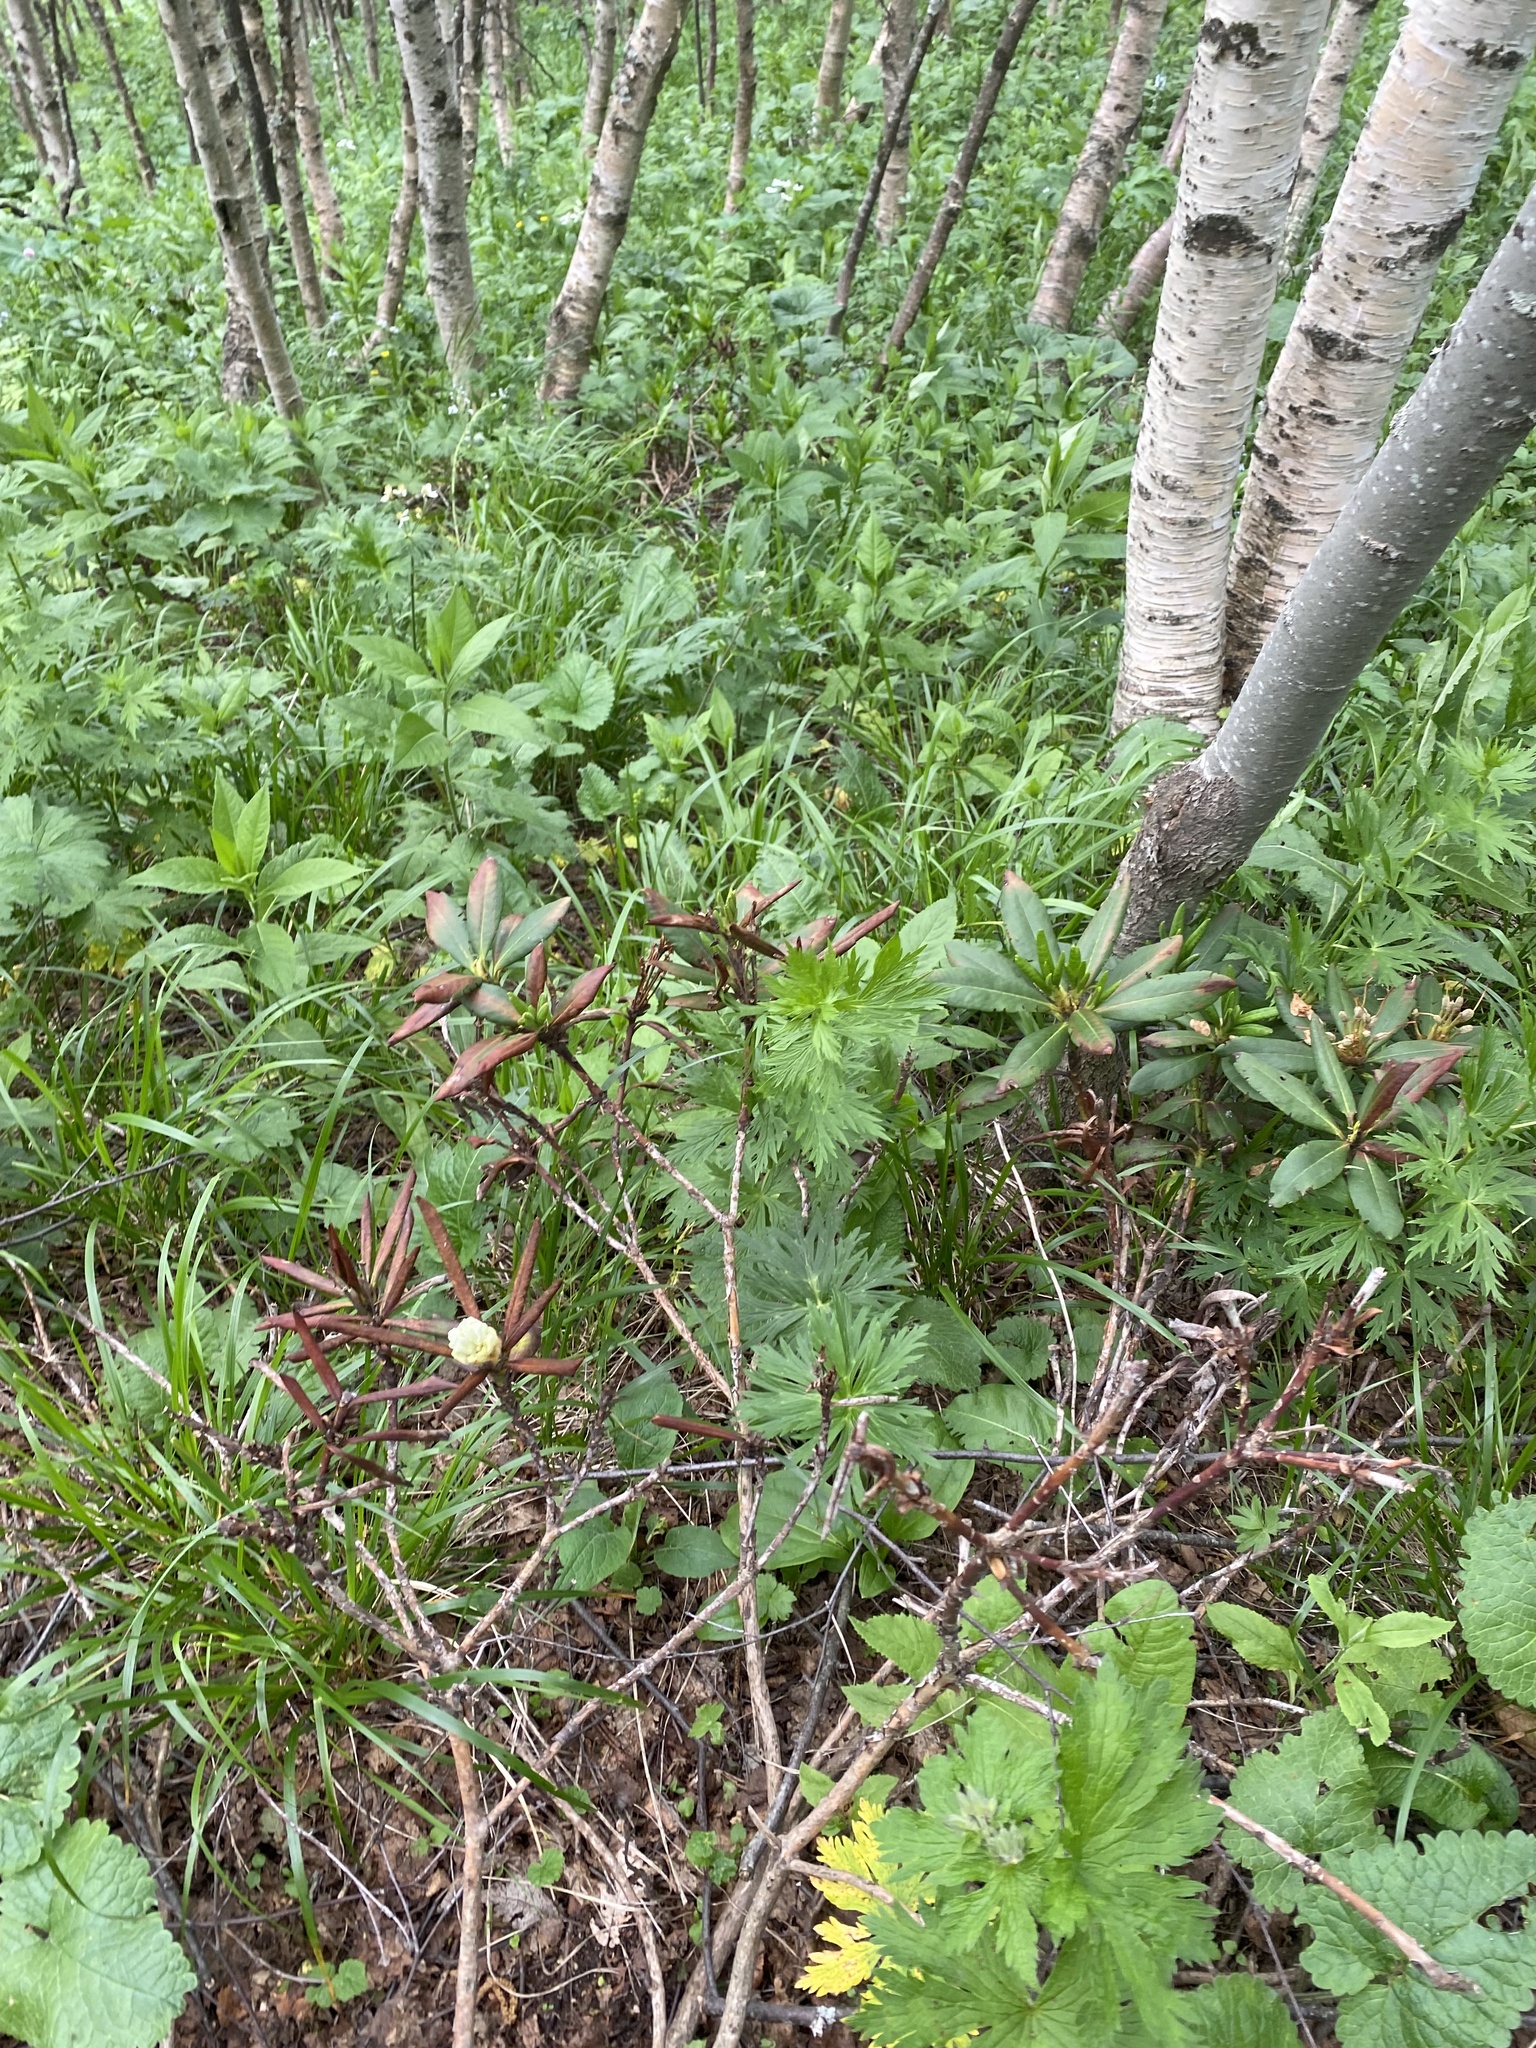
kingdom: Plantae
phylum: Tracheophyta
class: Magnoliopsida
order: Ericales
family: Ericaceae
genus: Rhododendron
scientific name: Rhododendron caucasicum
